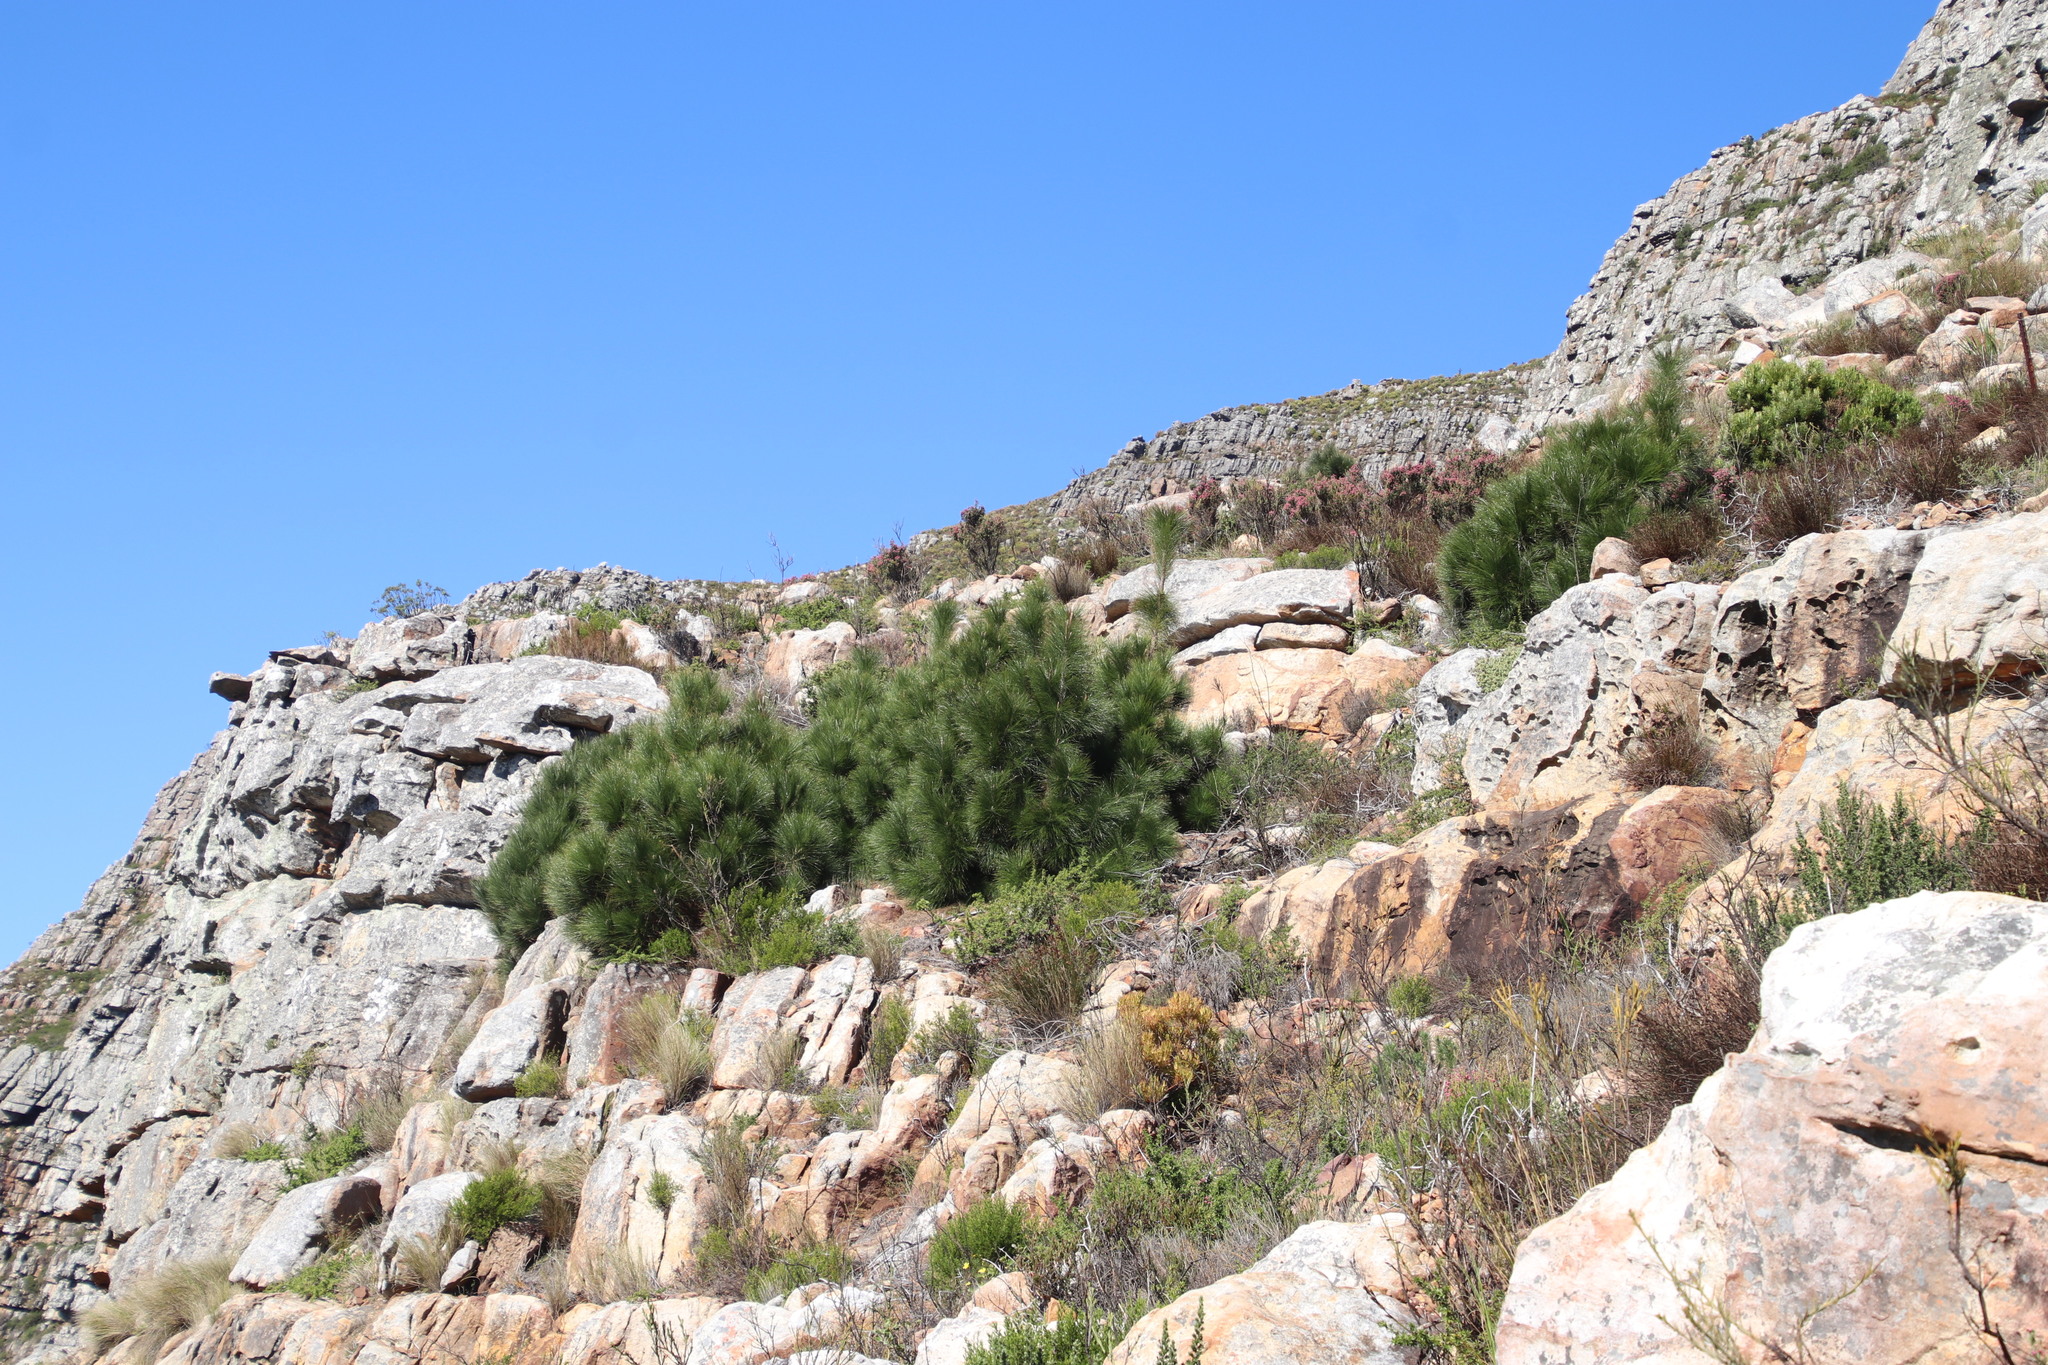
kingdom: Plantae
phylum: Tracheophyta
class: Pinopsida
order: Pinales
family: Pinaceae
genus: Pinus
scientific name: Pinus canariensis
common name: Canary islands pine
